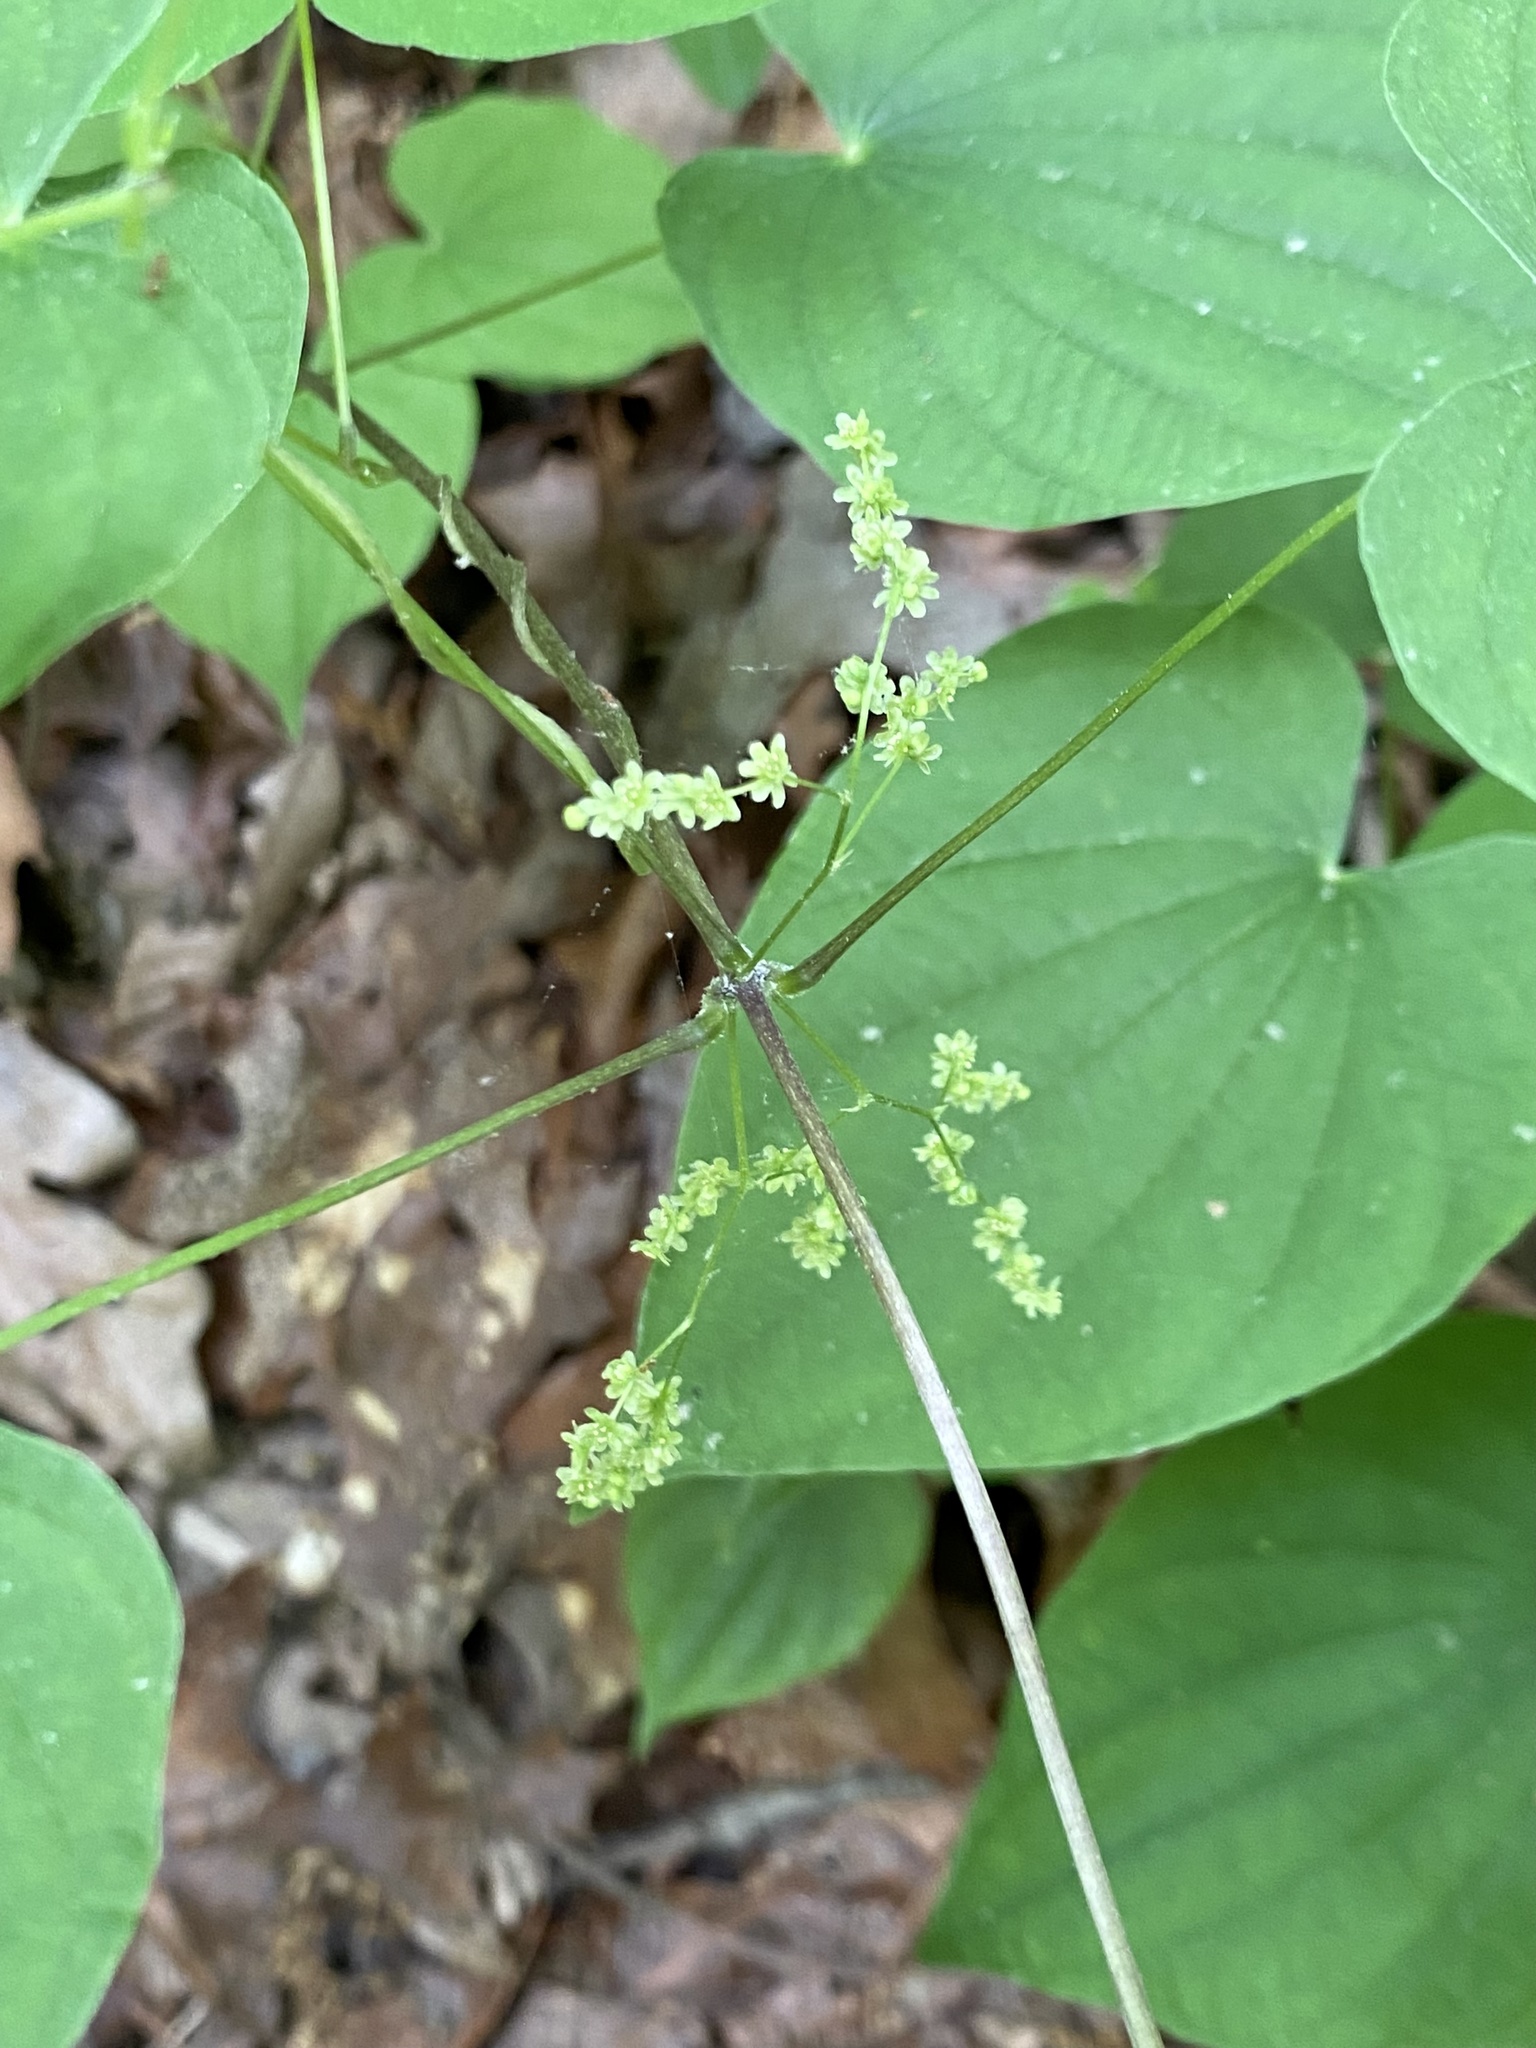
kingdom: Plantae
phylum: Tracheophyta
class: Liliopsida
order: Dioscoreales
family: Dioscoreaceae
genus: Dioscorea
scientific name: Dioscorea villosa
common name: Wild yam
